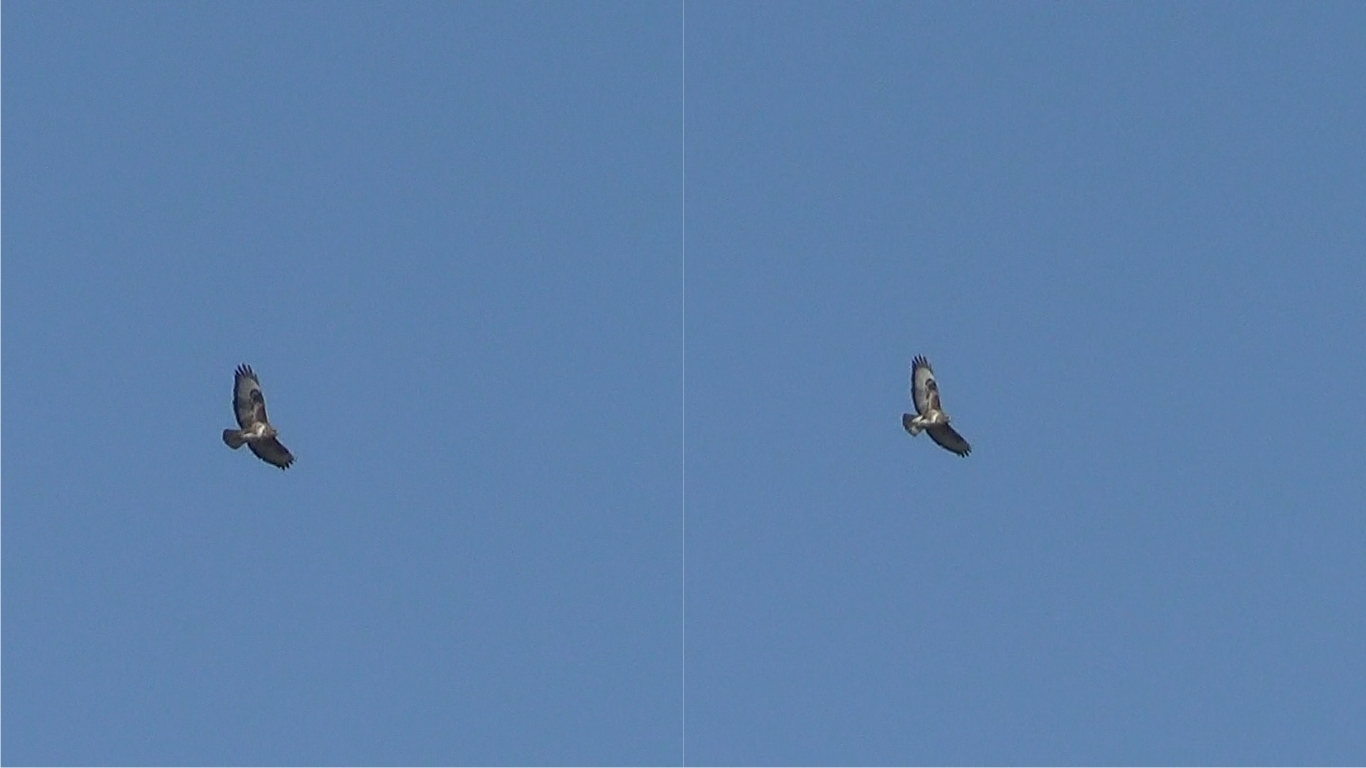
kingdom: Animalia
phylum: Chordata
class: Aves
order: Accipitriformes
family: Accipitridae
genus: Buteo
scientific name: Buteo buteo
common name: Common buzzard
